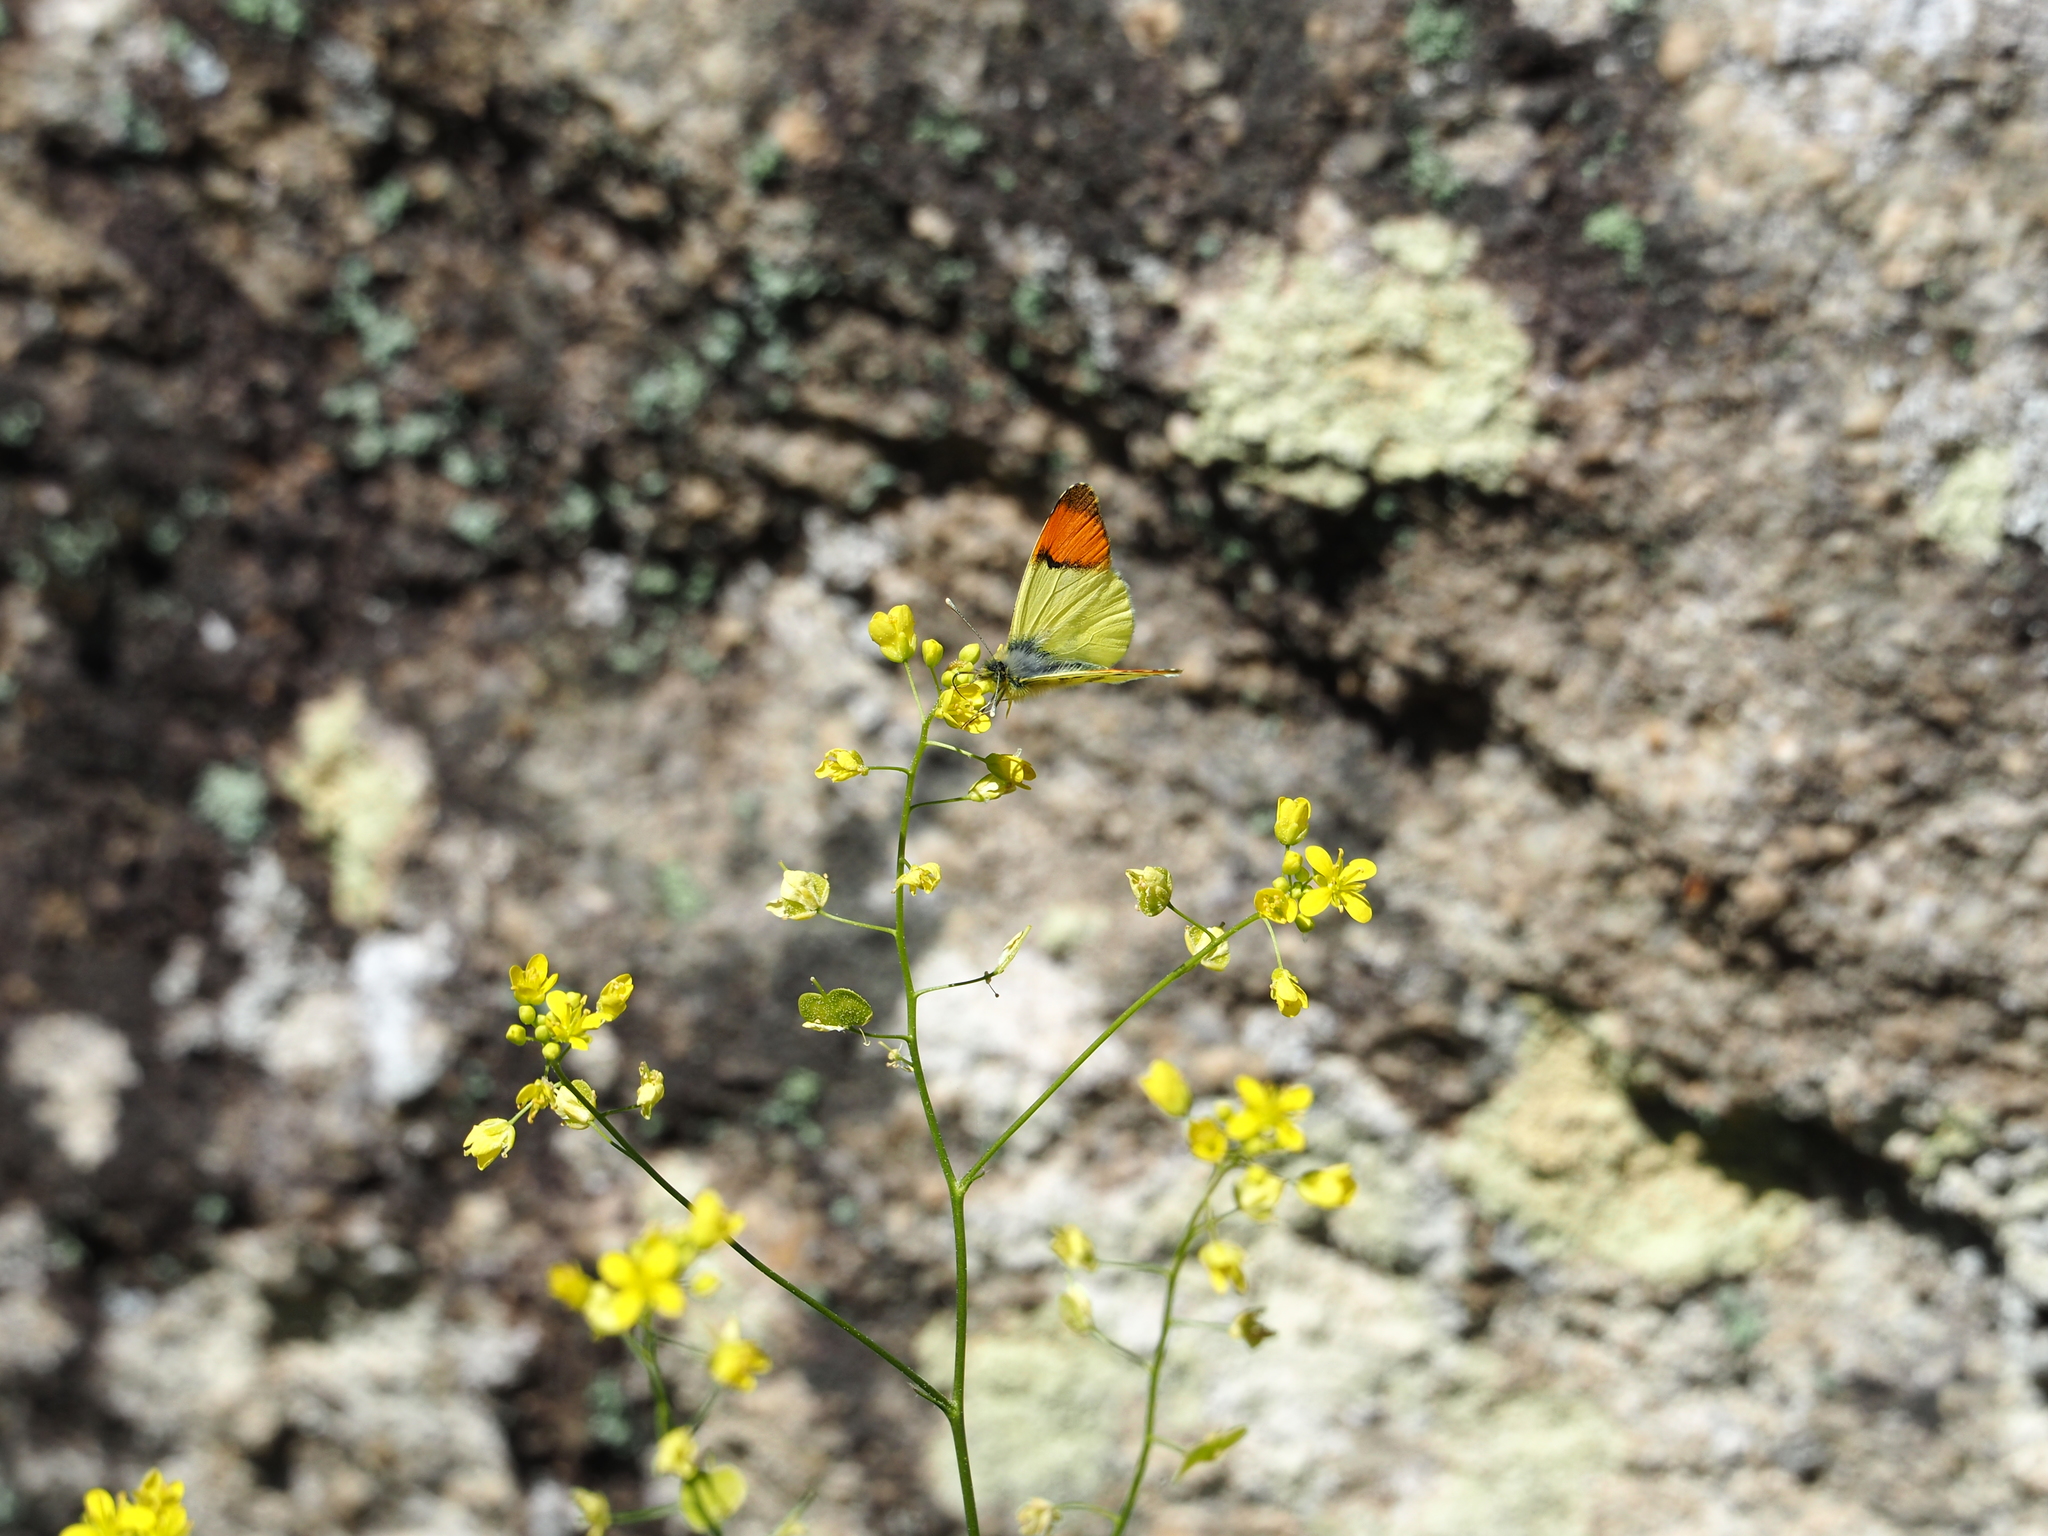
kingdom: Animalia
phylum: Arthropoda
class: Insecta
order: Lepidoptera
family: Pieridae
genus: Anthocharis
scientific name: Anthocharis euphenoides
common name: Provence orange-tip
